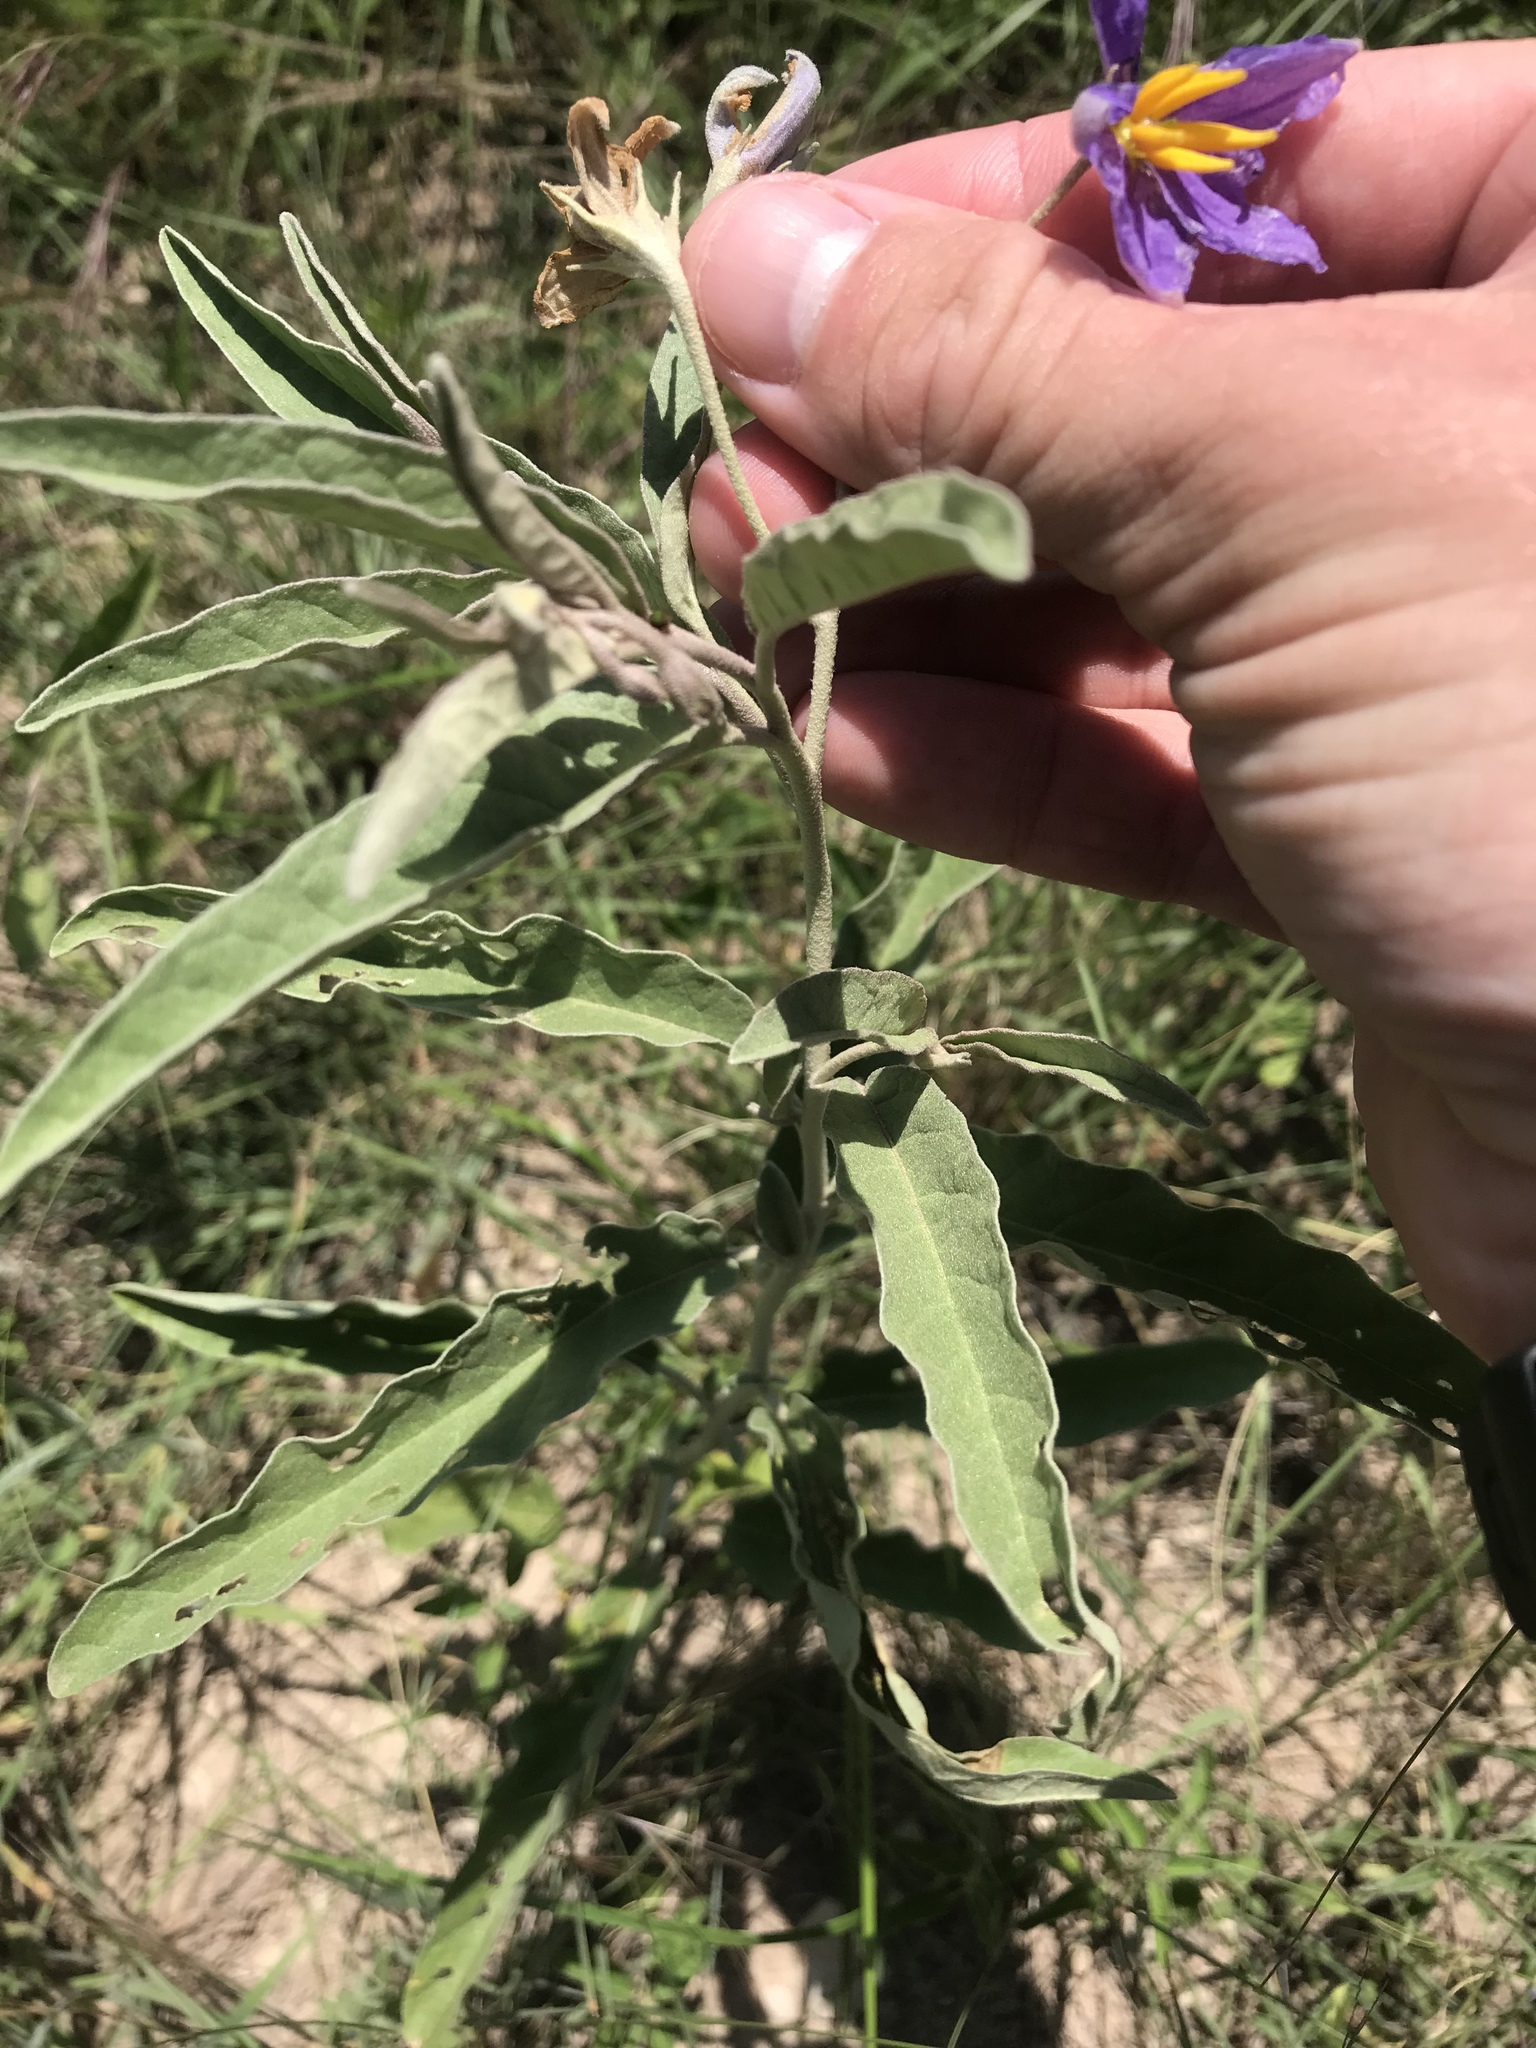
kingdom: Plantae
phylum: Tracheophyta
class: Magnoliopsida
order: Solanales
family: Solanaceae
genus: Solanum
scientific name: Solanum elaeagnifolium
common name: Silverleaf nightshade
